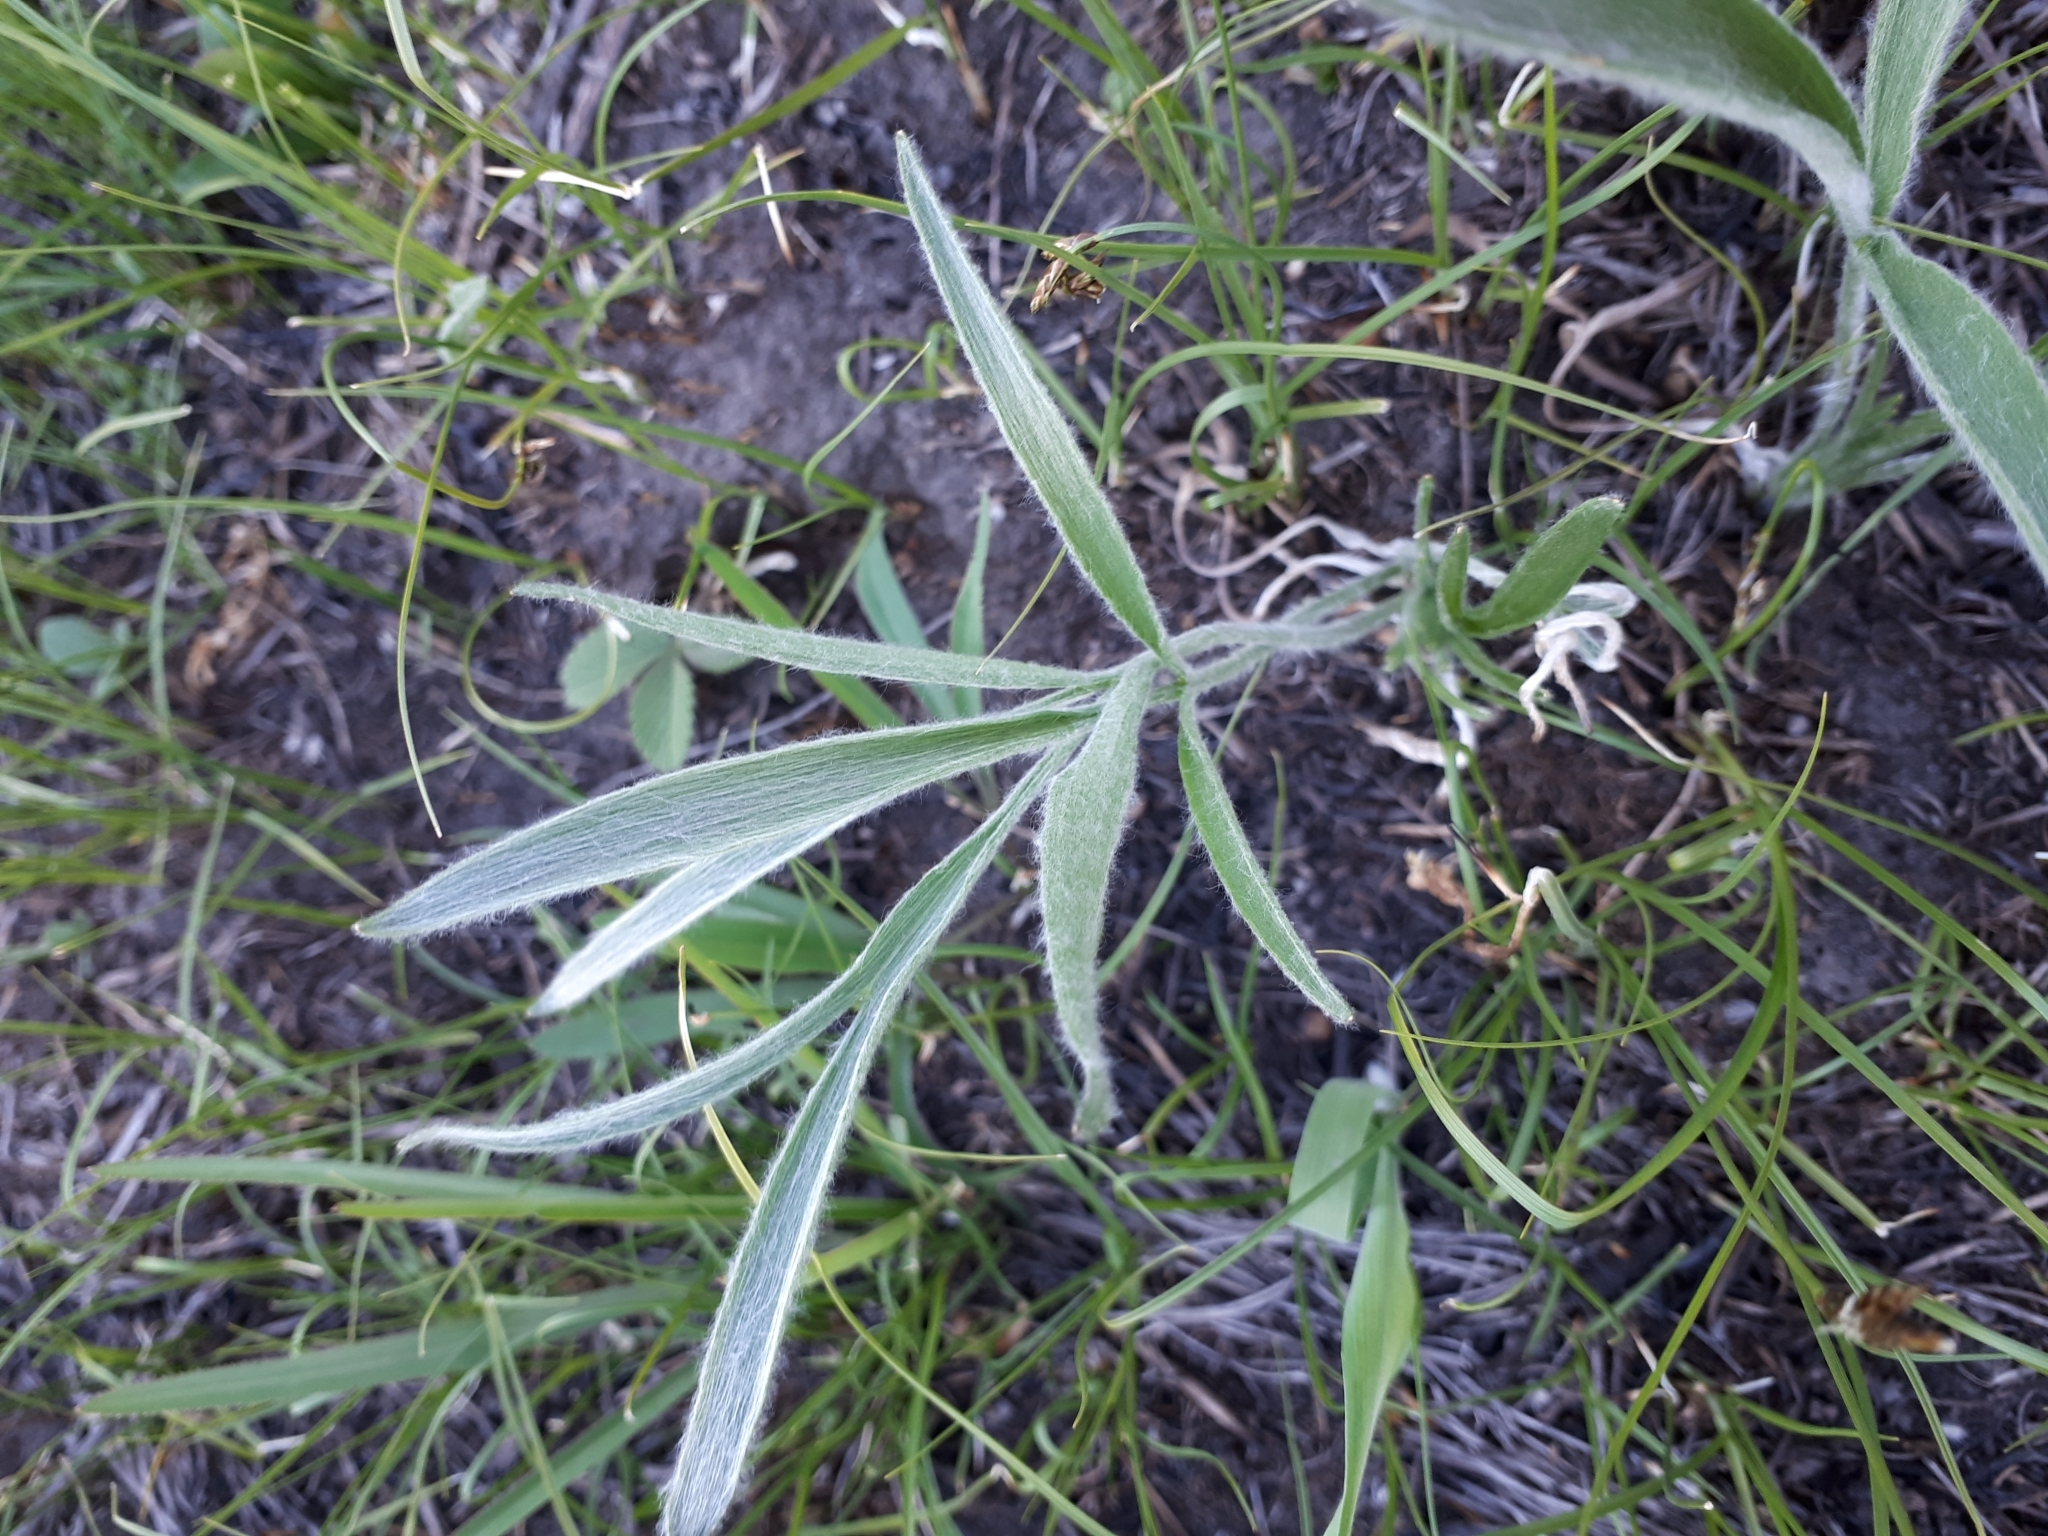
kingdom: Plantae
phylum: Tracheophyta
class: Magnoliopsida
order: Ranunculales
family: Ranunculaceae
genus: Ranunculus
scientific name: Ranunculus illyricus
